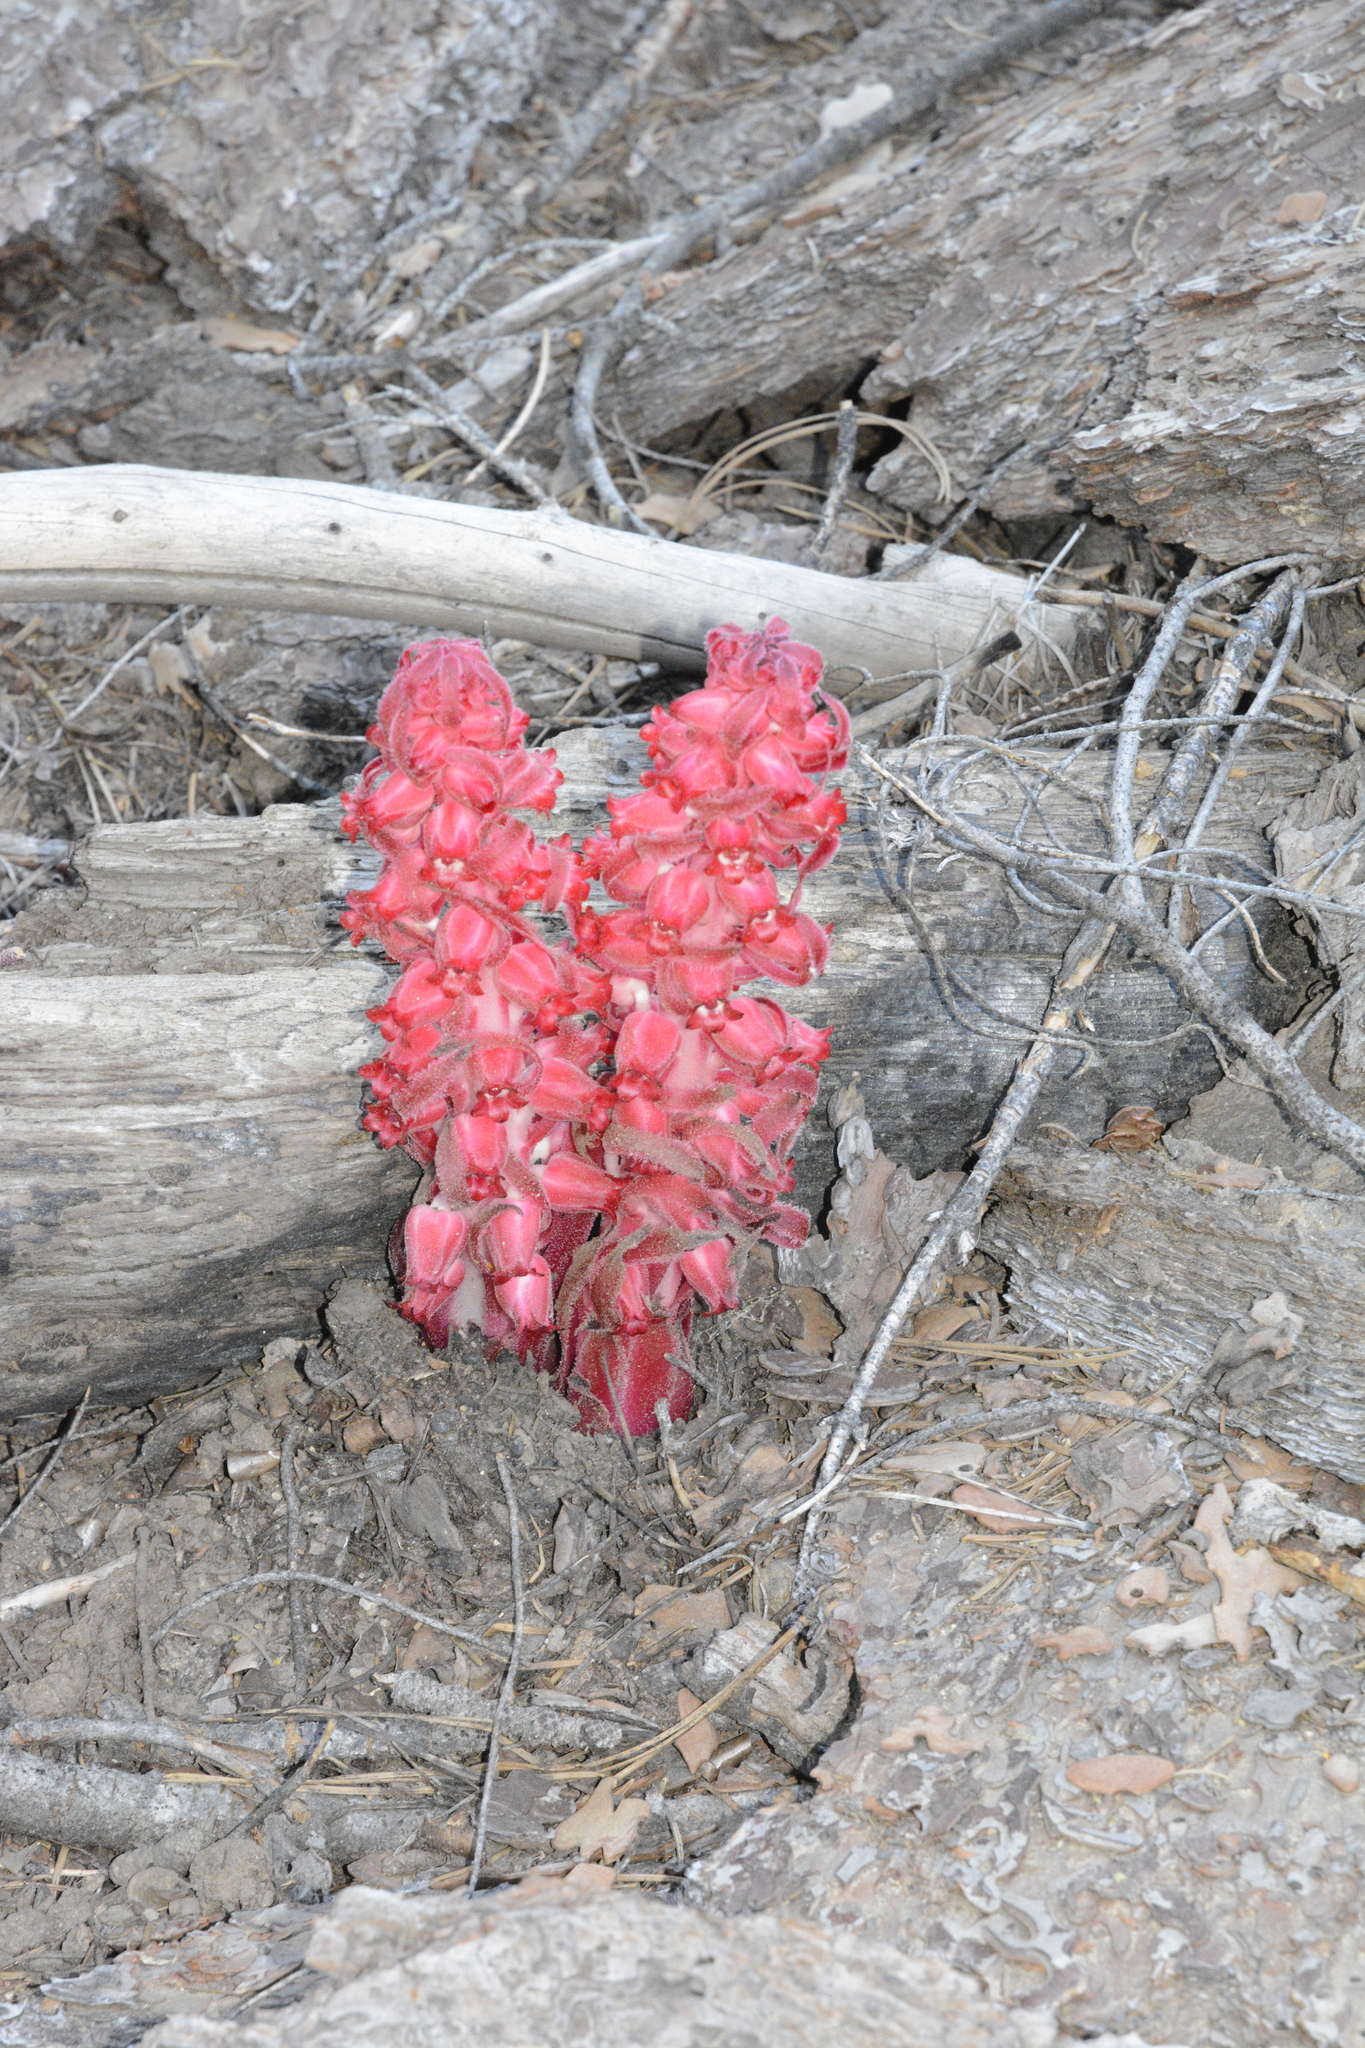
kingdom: Plantae
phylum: Tracheophyta
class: Magnoliopsida
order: Ericales
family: Ericaceae
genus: Sarcodes
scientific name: Sarcodes sanguinea
